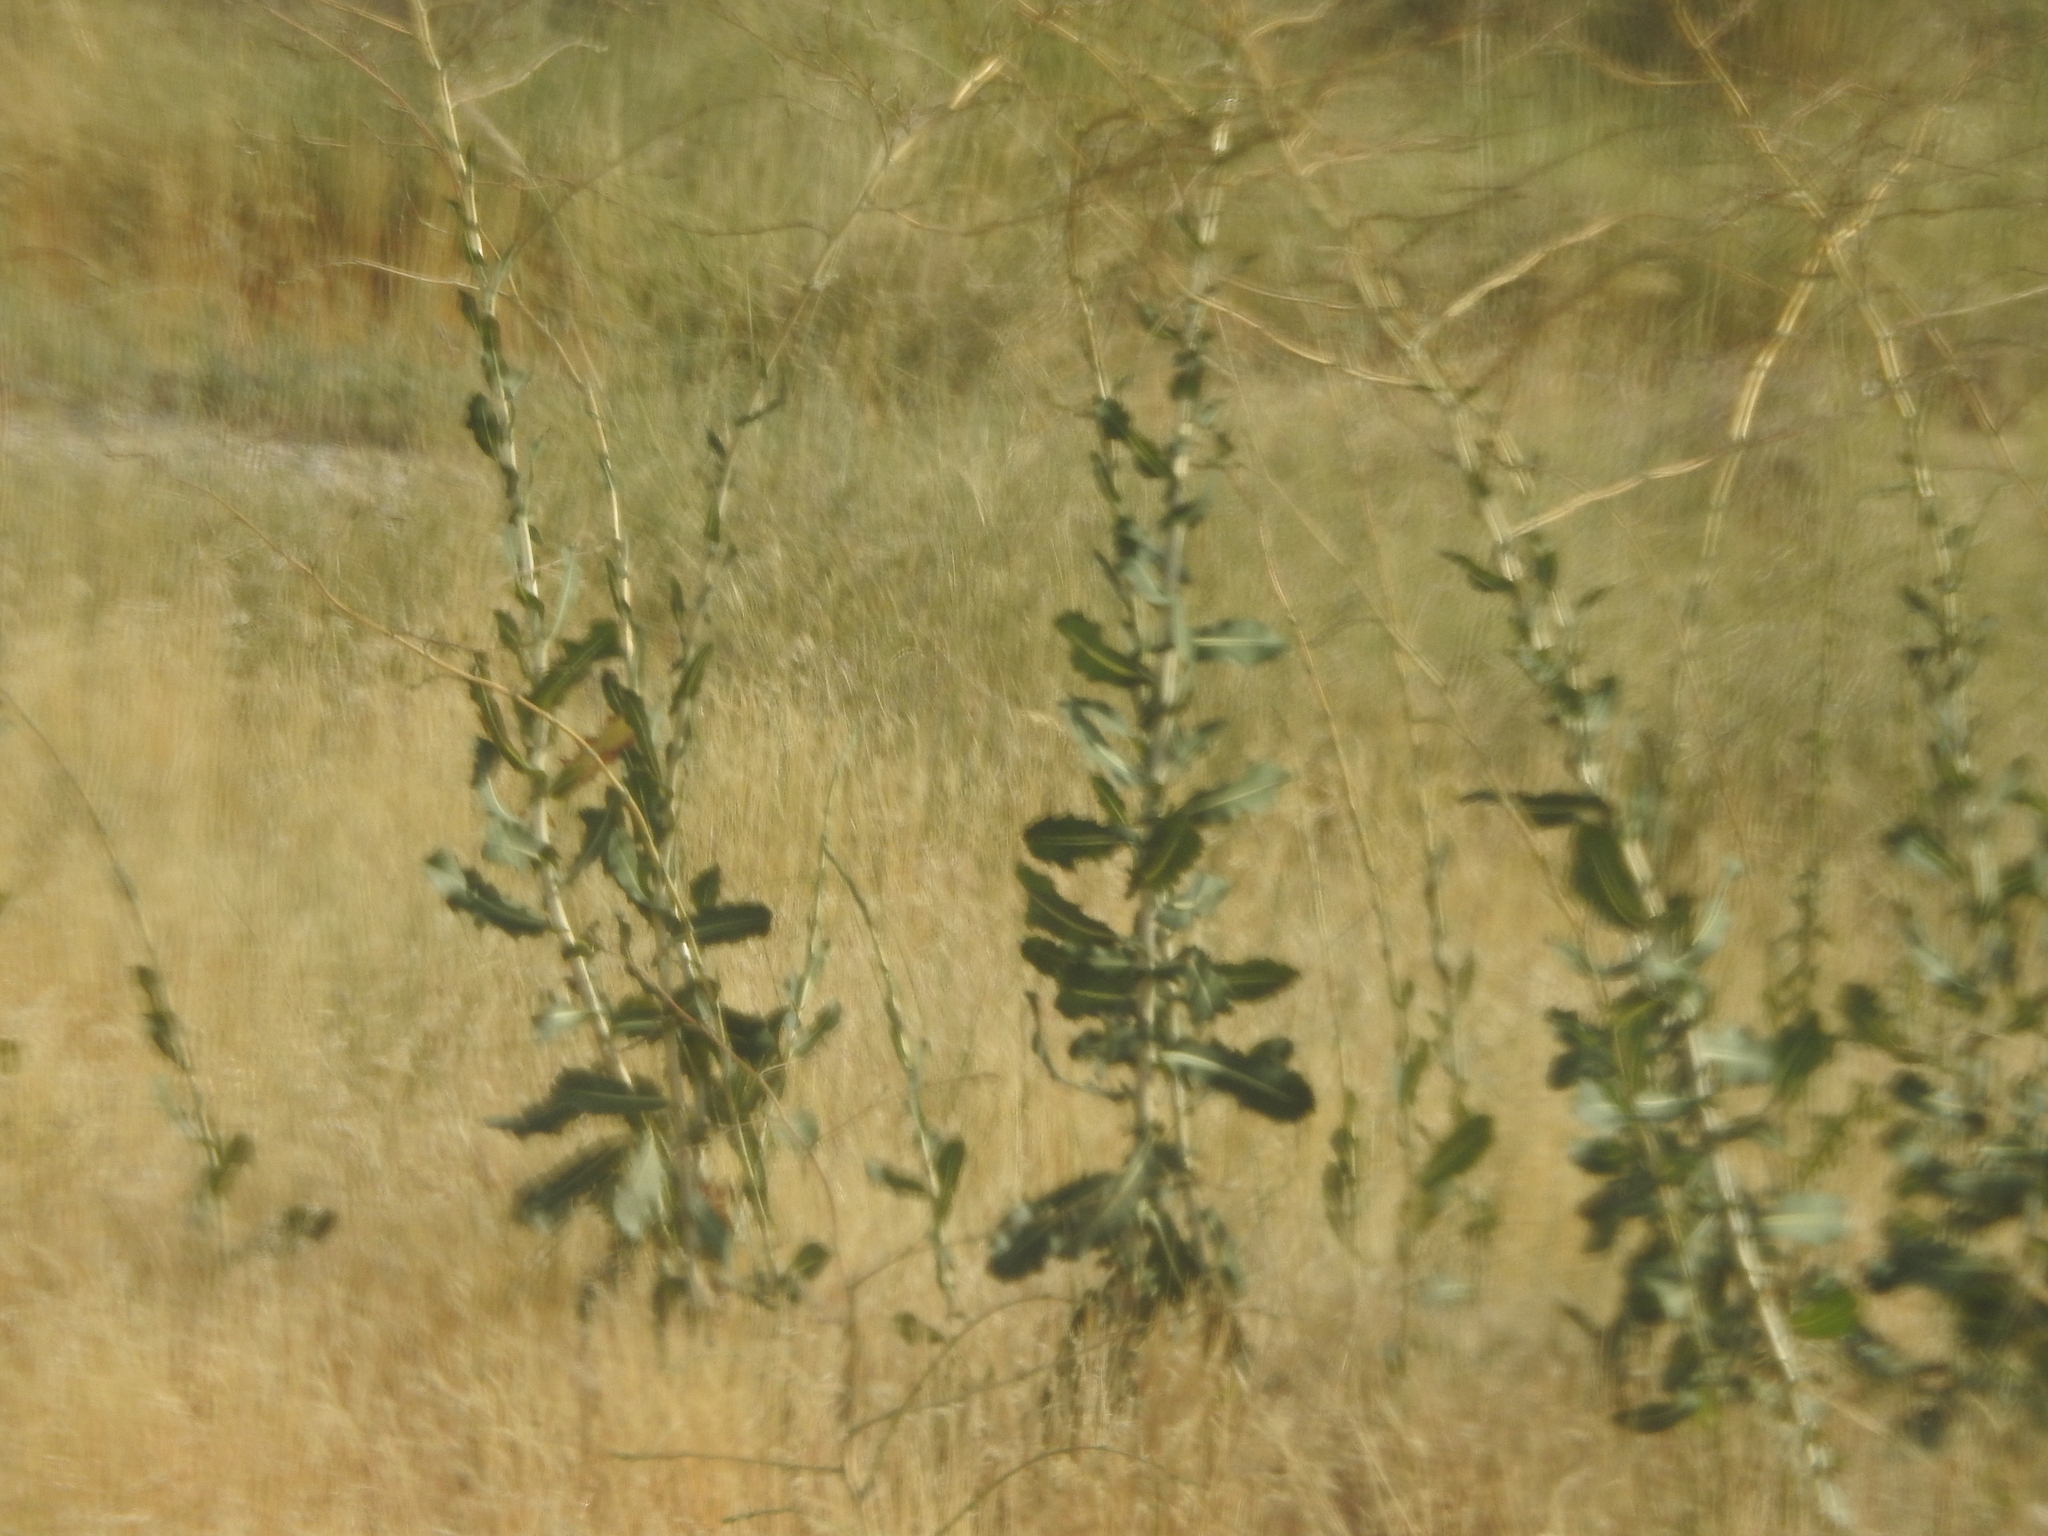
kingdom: Plantae
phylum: Tracheophyta
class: Magnoliopsida
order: Asterales
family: Asteraceae
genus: Lactuca
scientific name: Lactuca serriola
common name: Prickly lettuce
